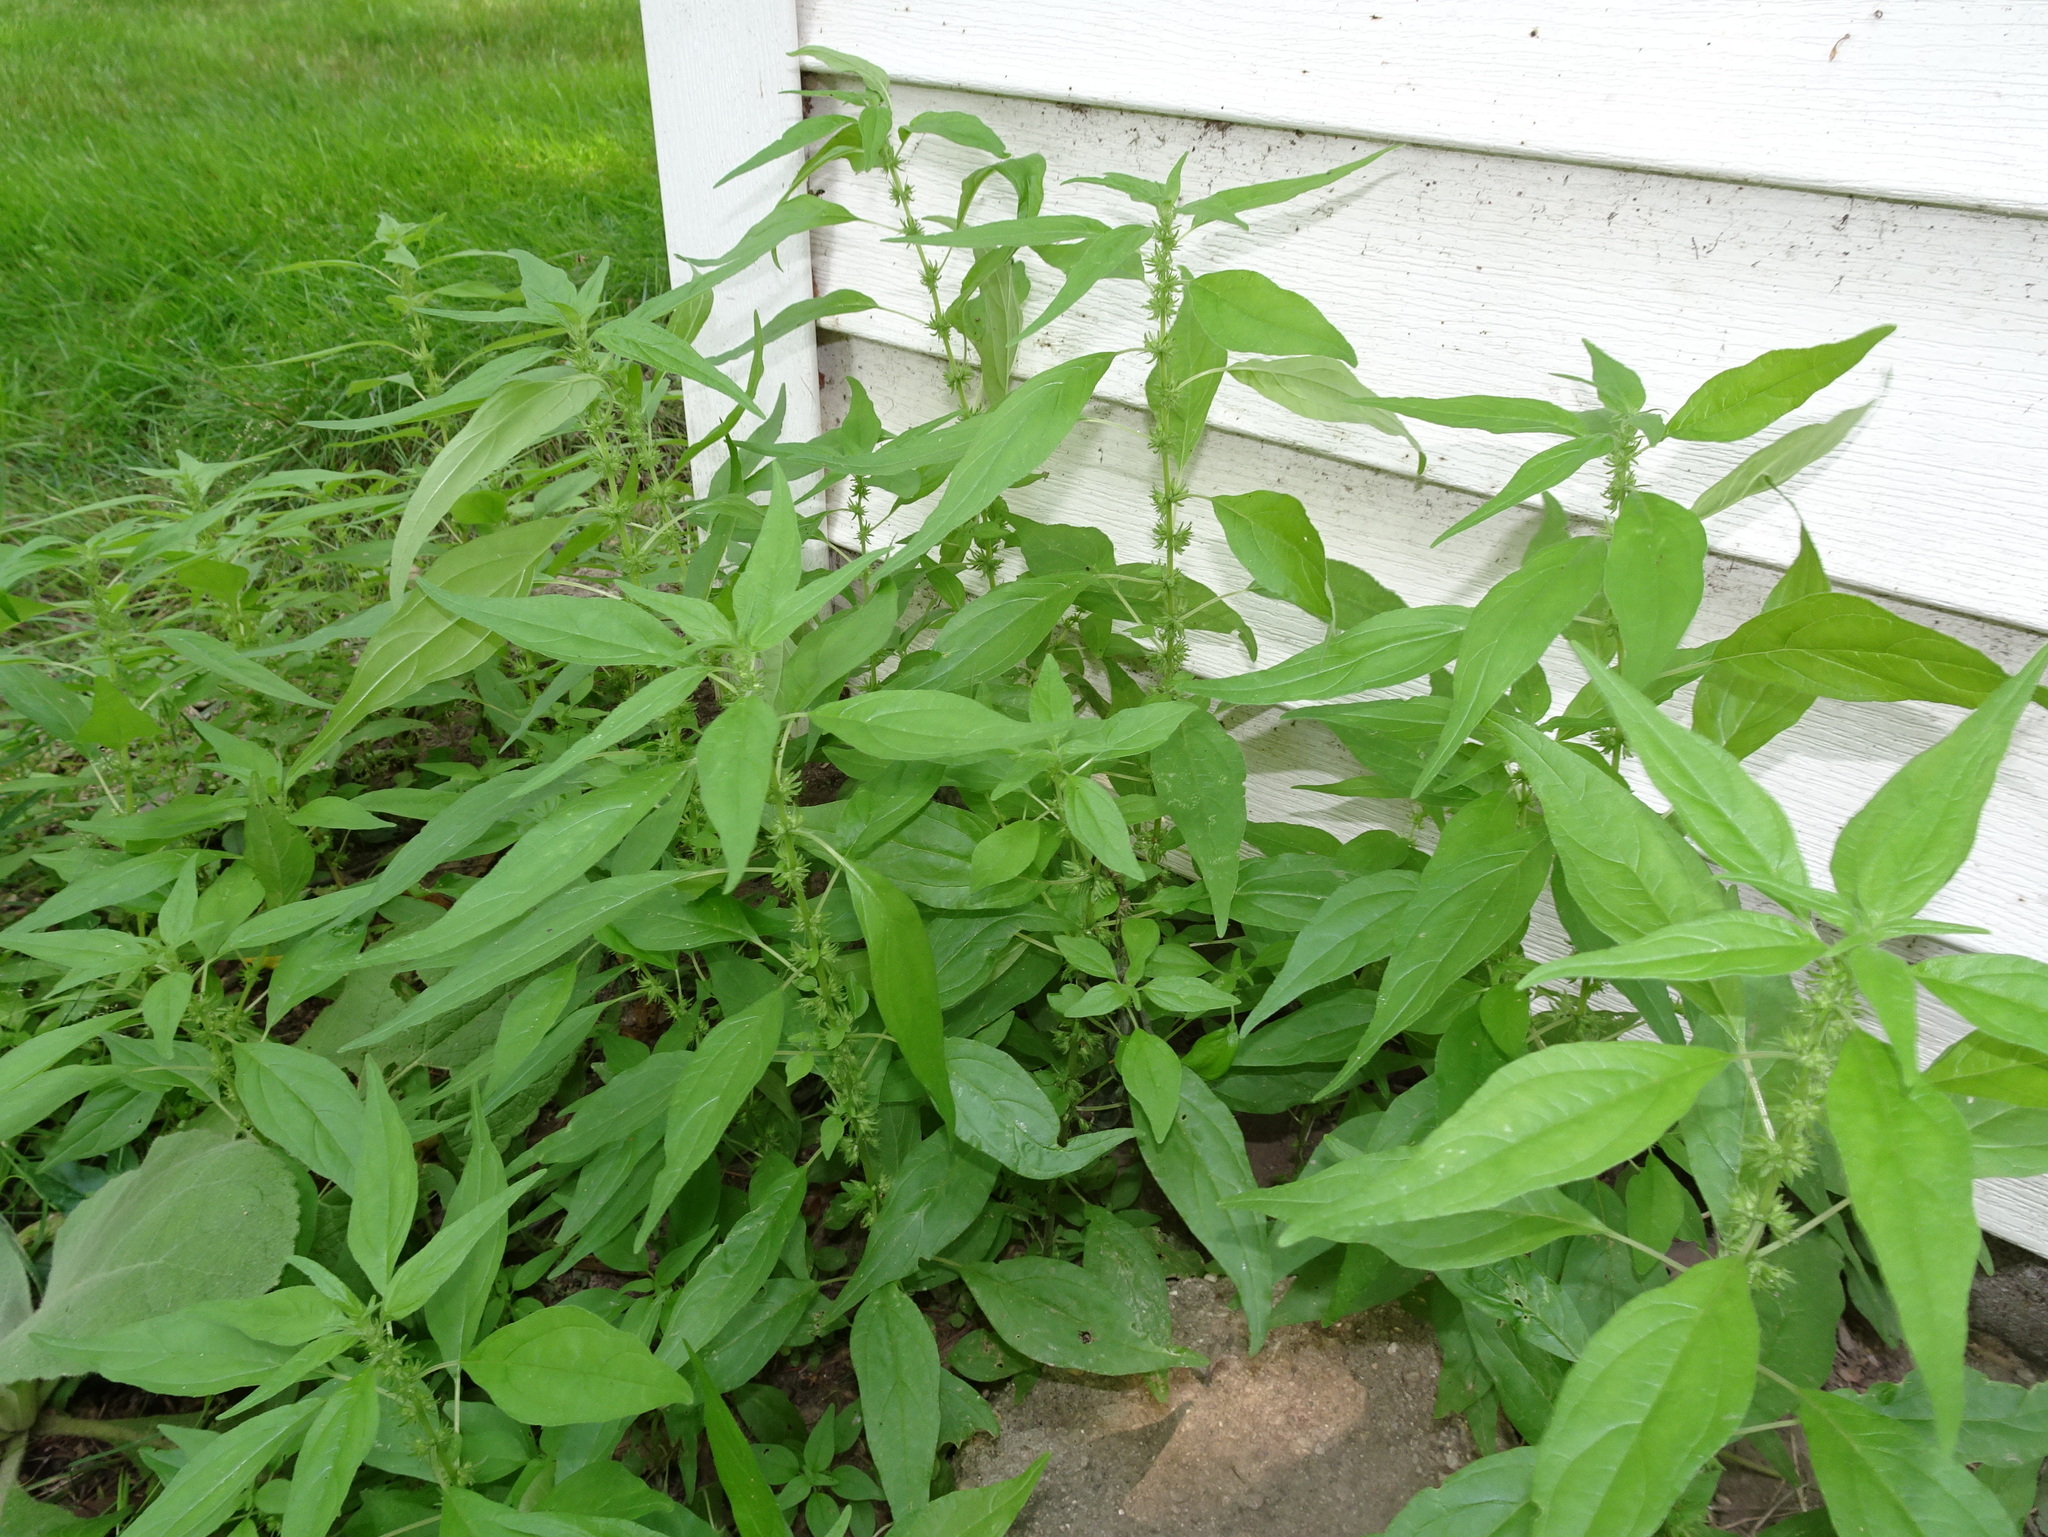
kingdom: Plantae
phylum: Tracheophyta
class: Magnoliopsida
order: Rosales
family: Urticaceae
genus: Parietaria
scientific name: Parietaria pensylvanica
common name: Pennsylvania pellitory
